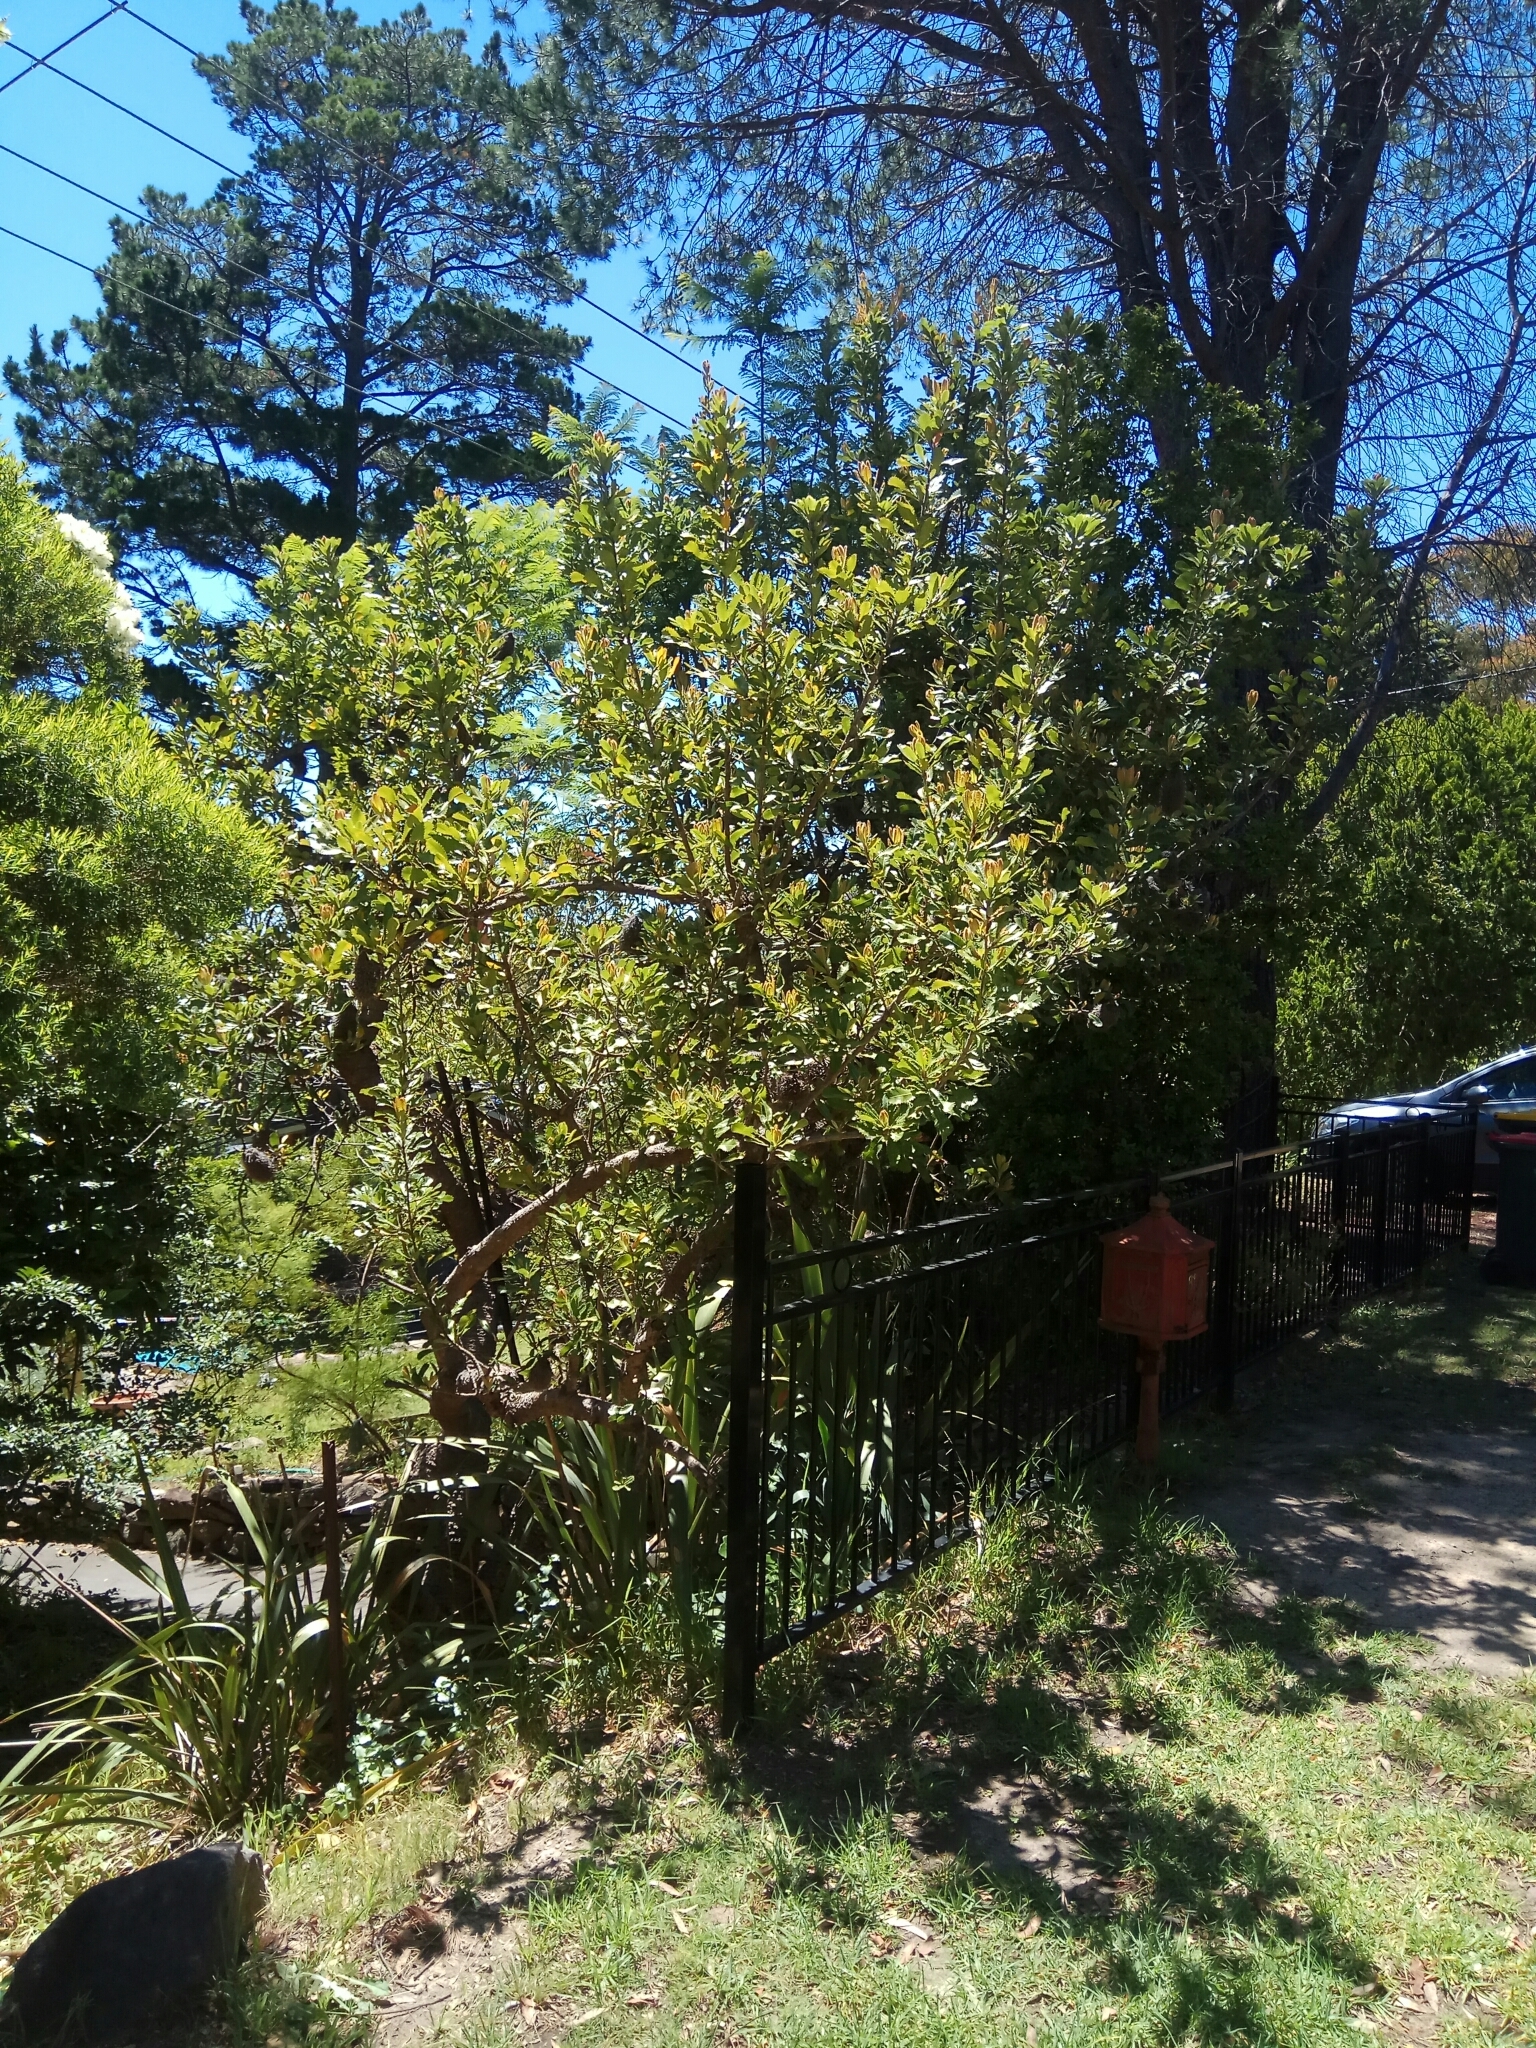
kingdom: Plantae
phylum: Tracheophyta
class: Magnoliopsida
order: Proteales
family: Proteaceae
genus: Banksia
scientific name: Banksia serrata
